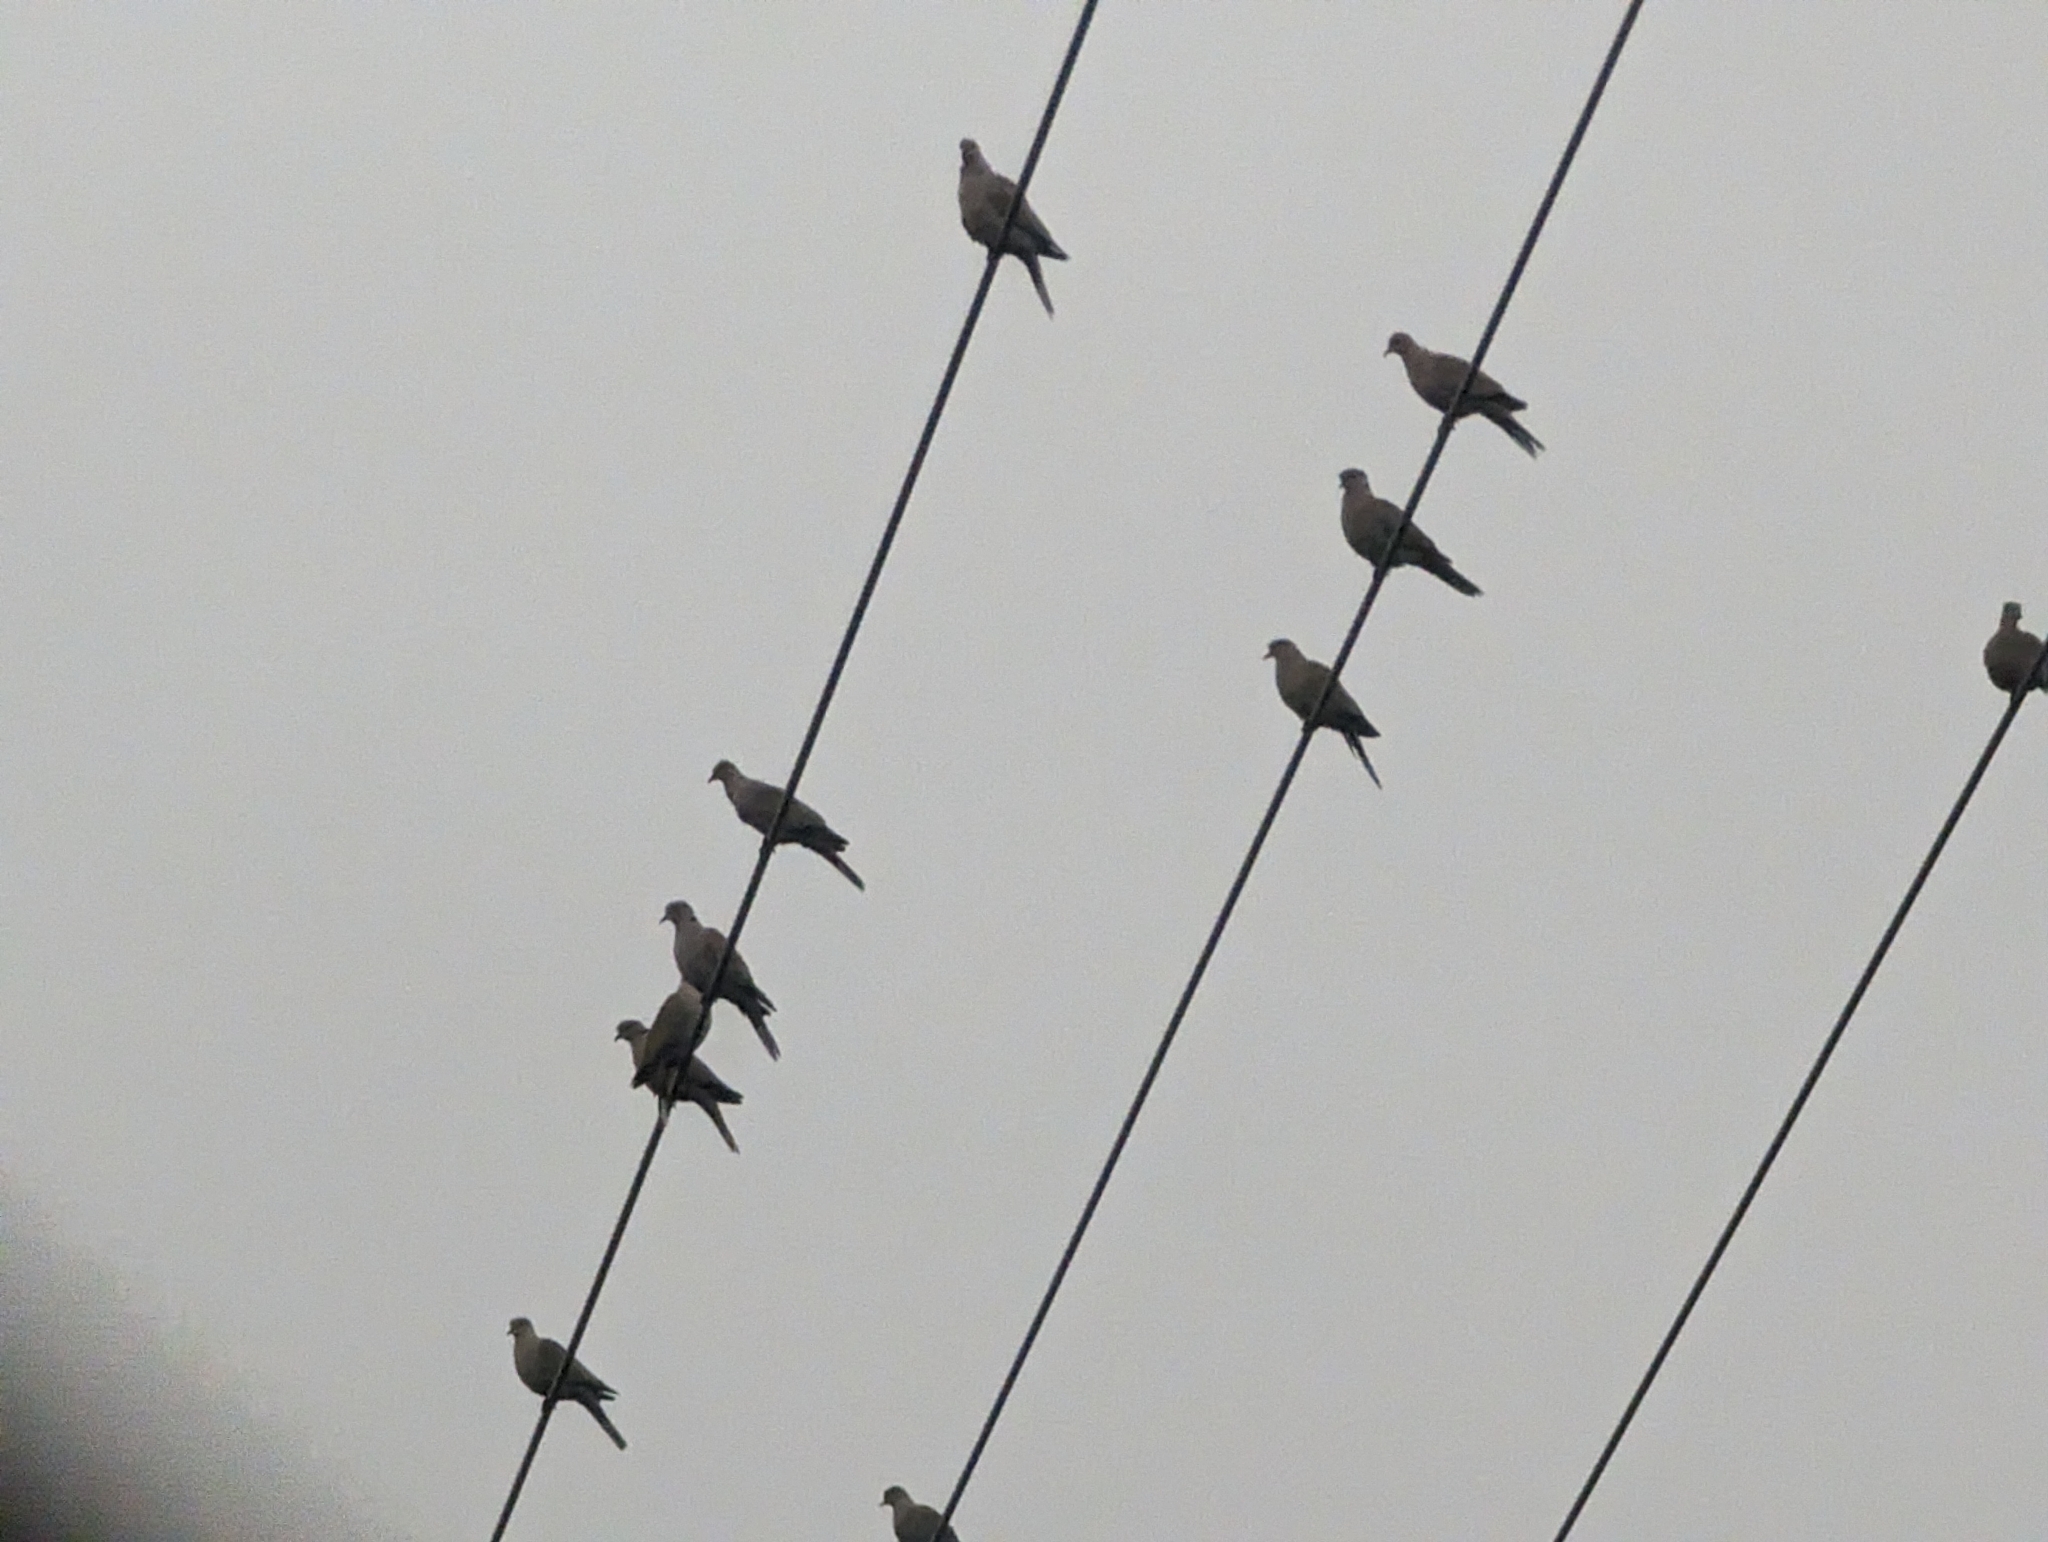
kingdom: Animalia
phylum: Chordata
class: Aves
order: Columbiformes
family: Columbidae
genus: Streptopelia
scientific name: Streptopelia decaocto
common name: Eurasian collared dove
